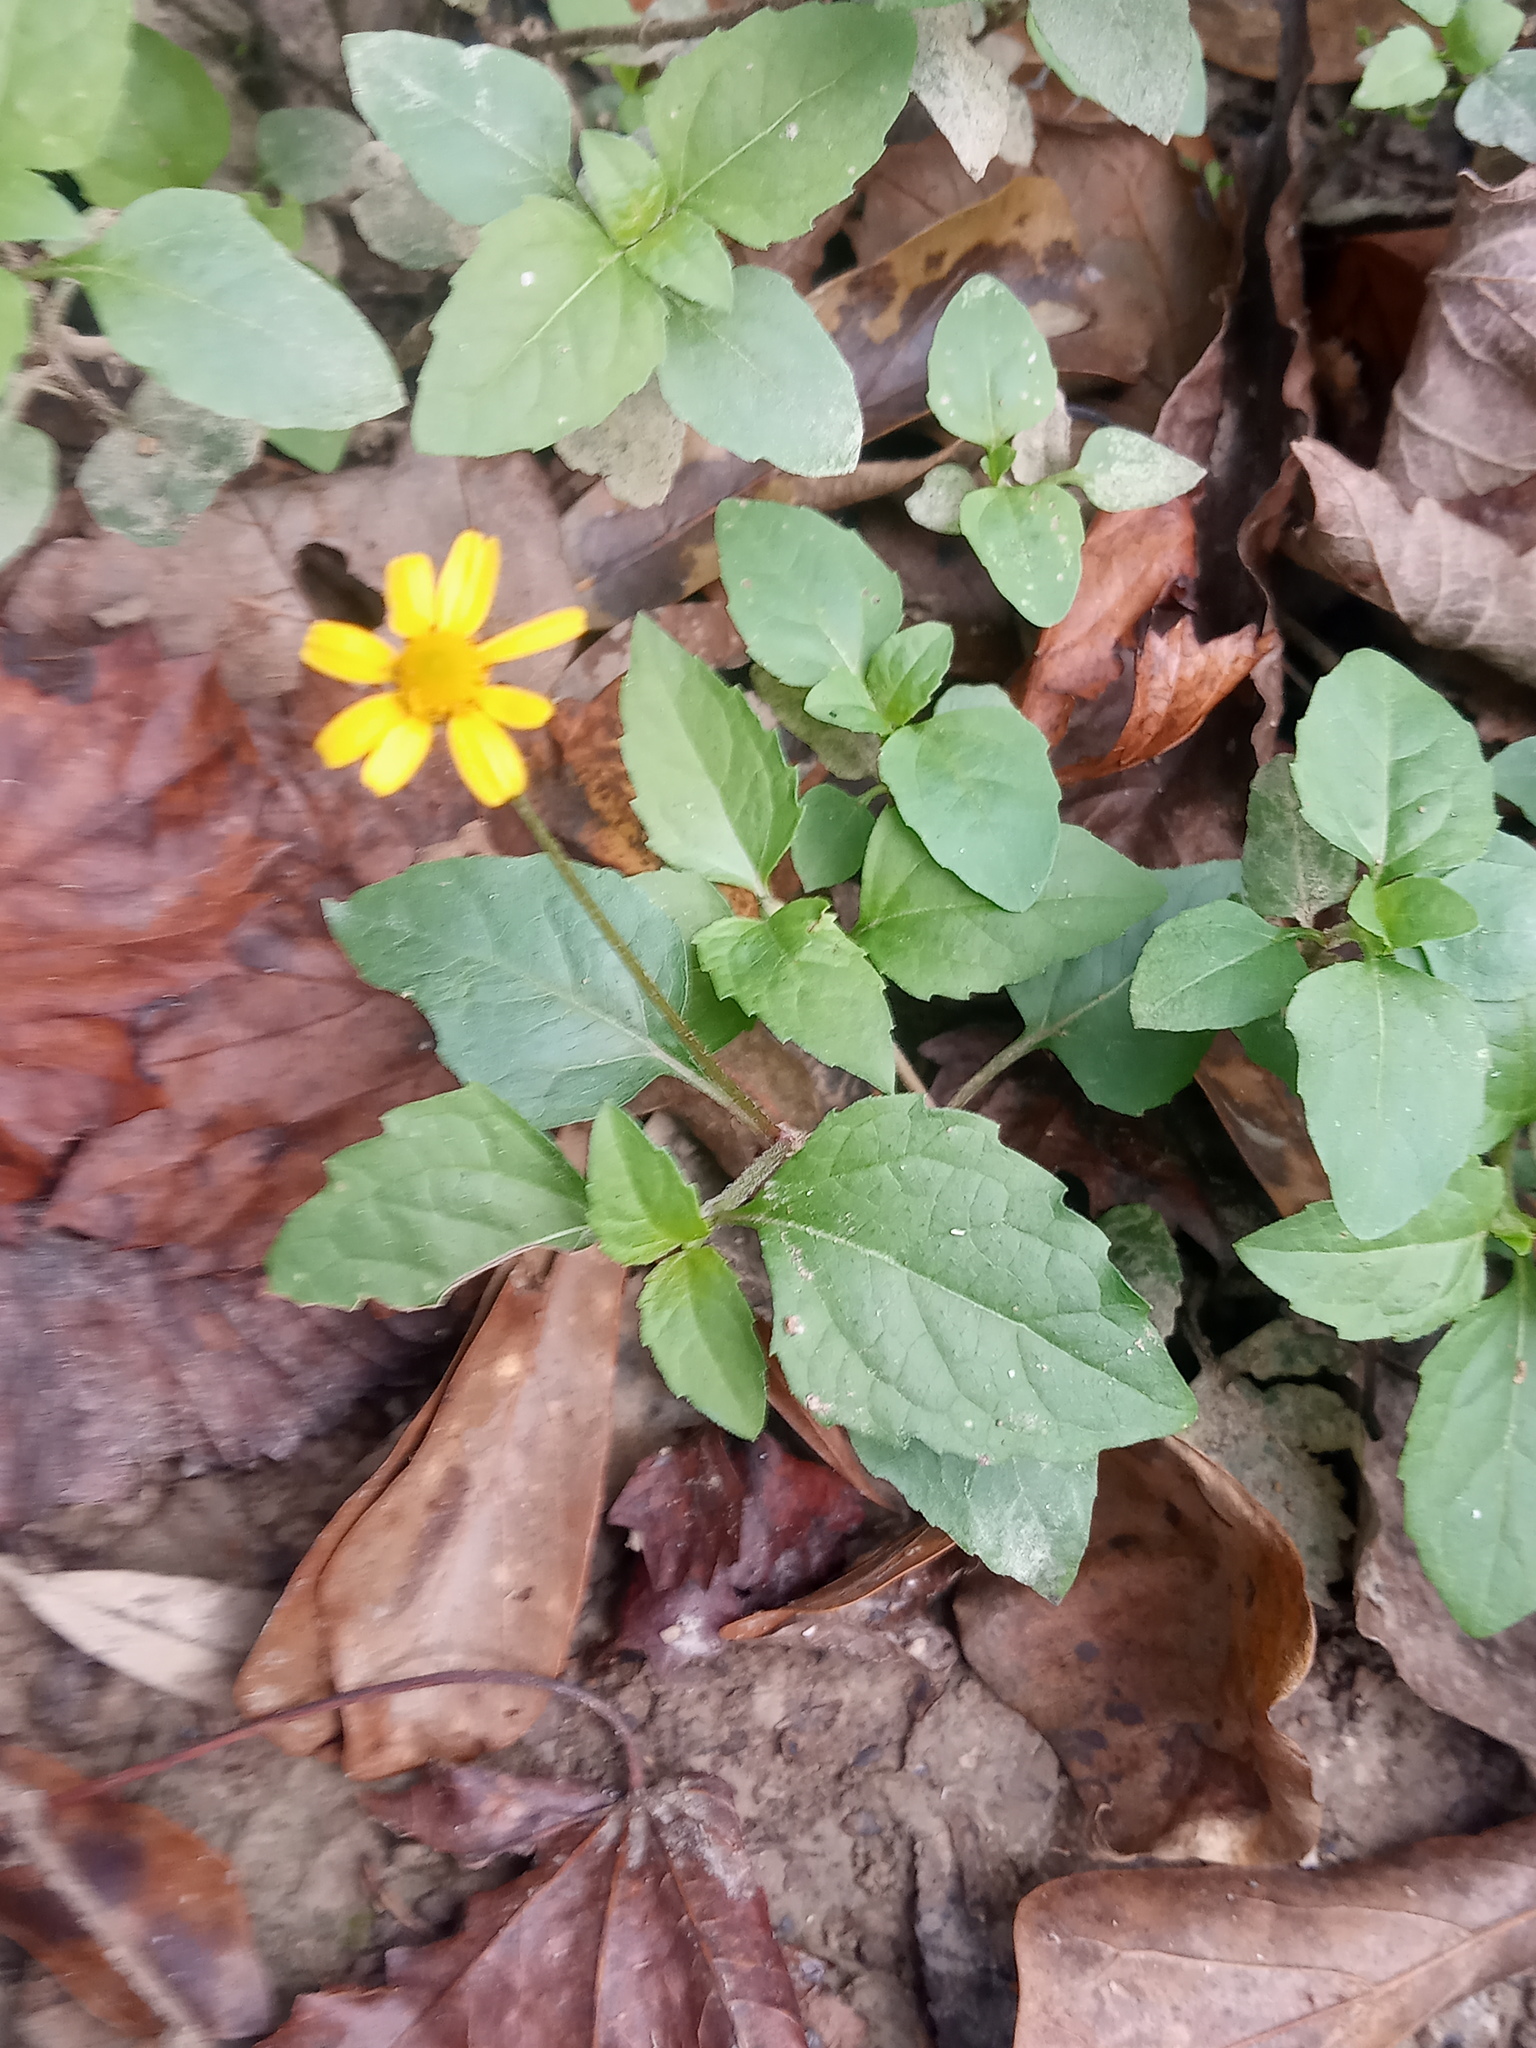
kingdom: Plantae
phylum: Tracheophyta
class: Magnoliopsida
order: Asterales
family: Asteraceae
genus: Acmella
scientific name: Acmella repens
